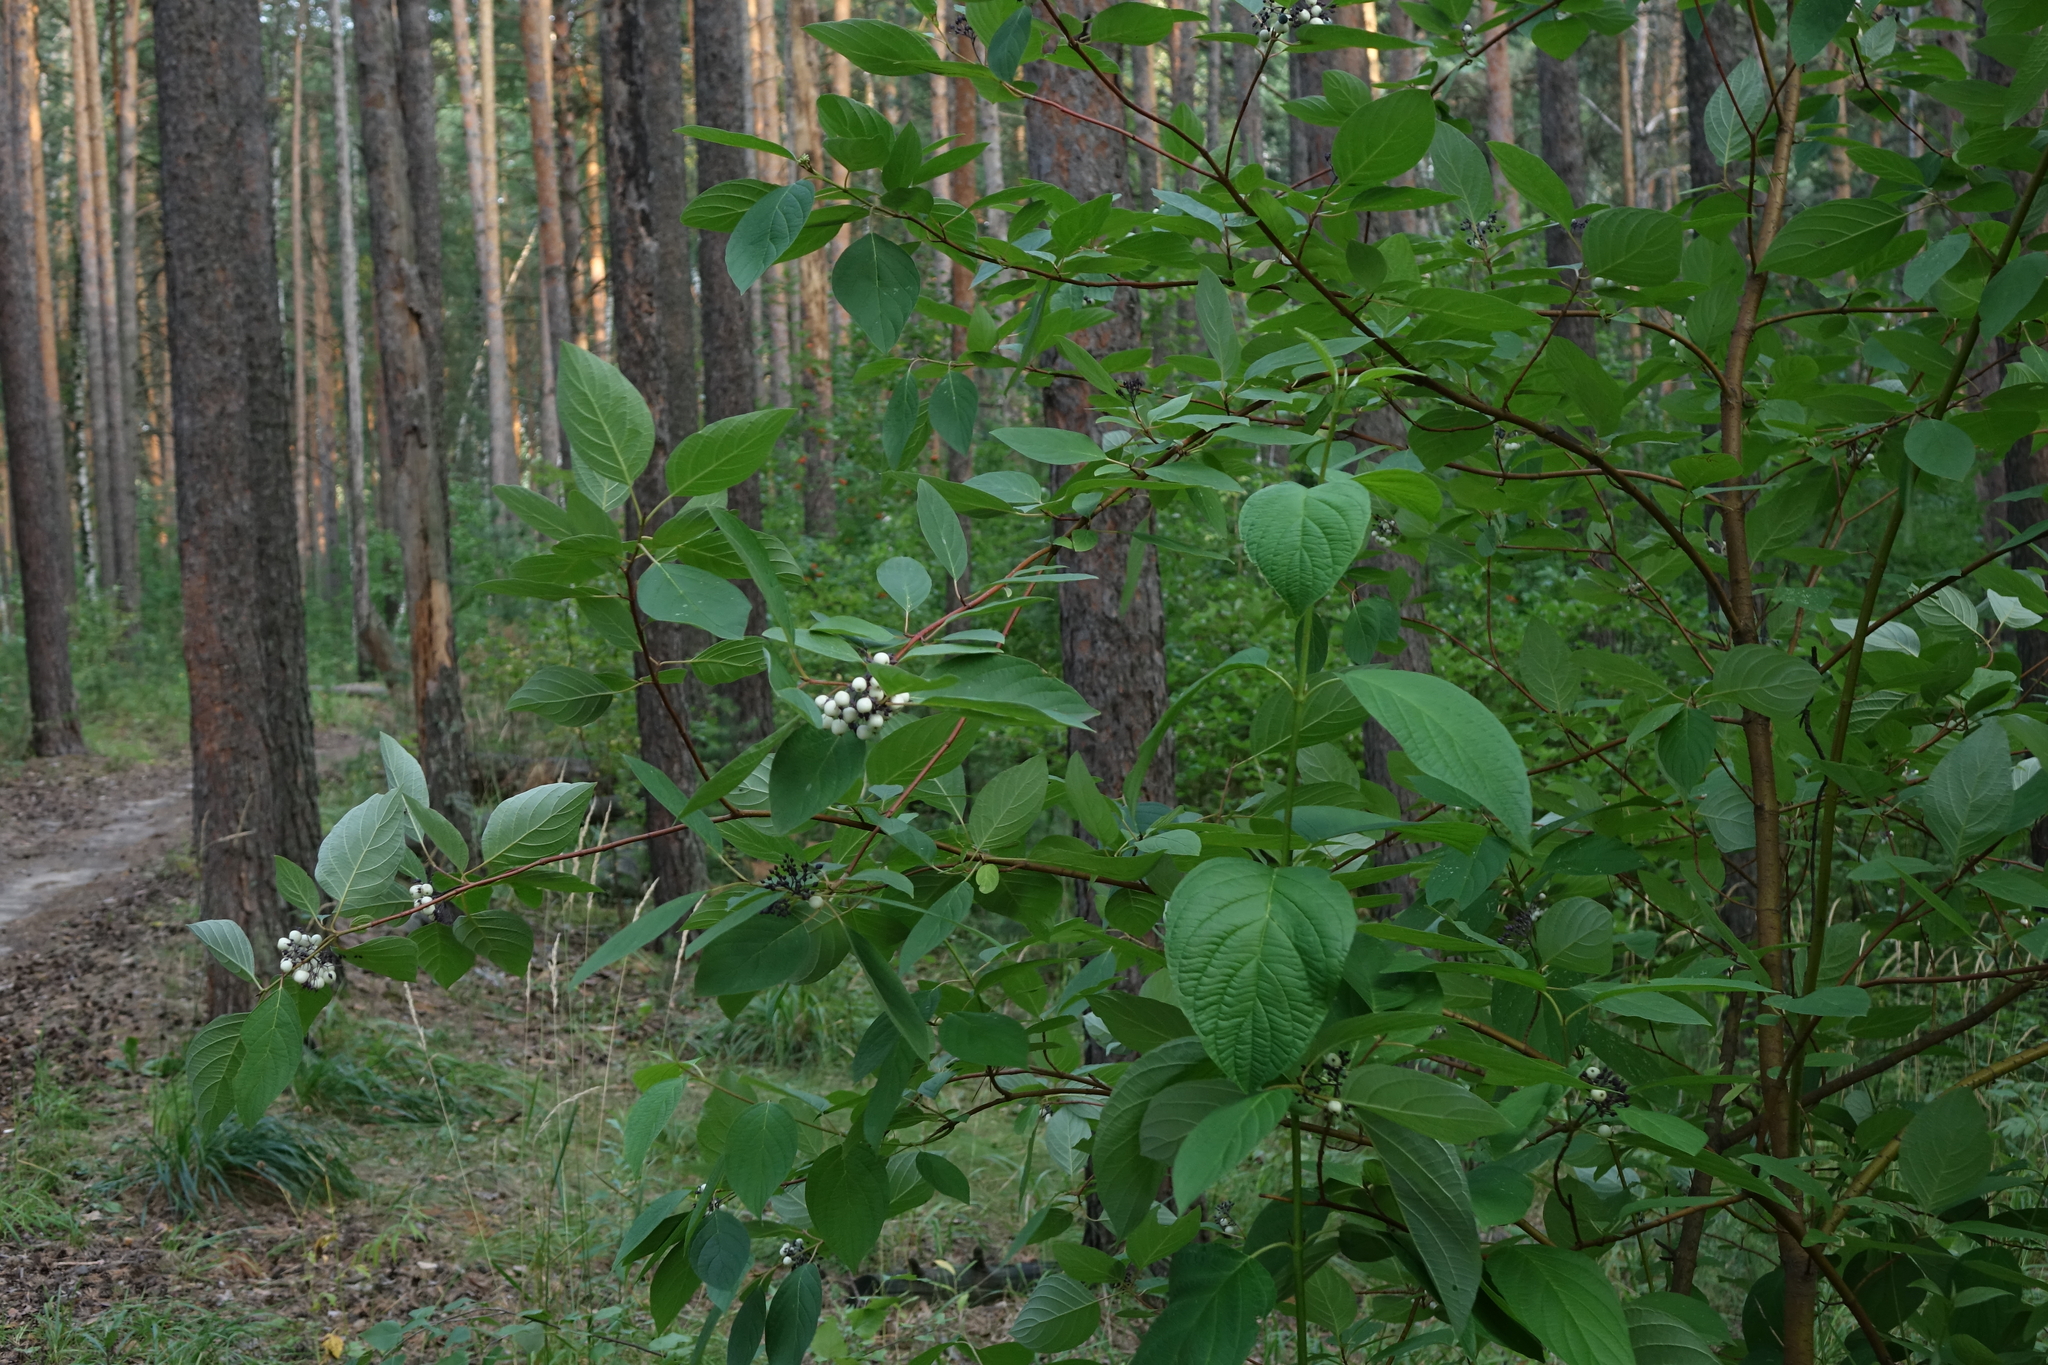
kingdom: Plantae
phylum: Tracheophyta
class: Magnoliopsida
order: Cornales
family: Cornaceae
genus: Cornus
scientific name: Cornus alba
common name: White dogwood
